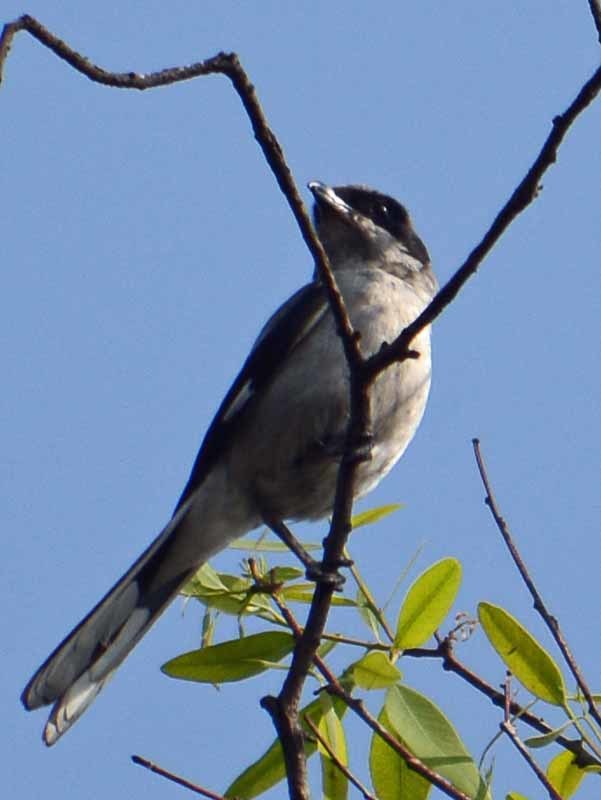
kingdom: Animalia
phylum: Chordata
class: Aves
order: Passeriformes
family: Laniidae
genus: Lanius
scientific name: Lanius ludovicianus
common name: Loggerhead shrike
